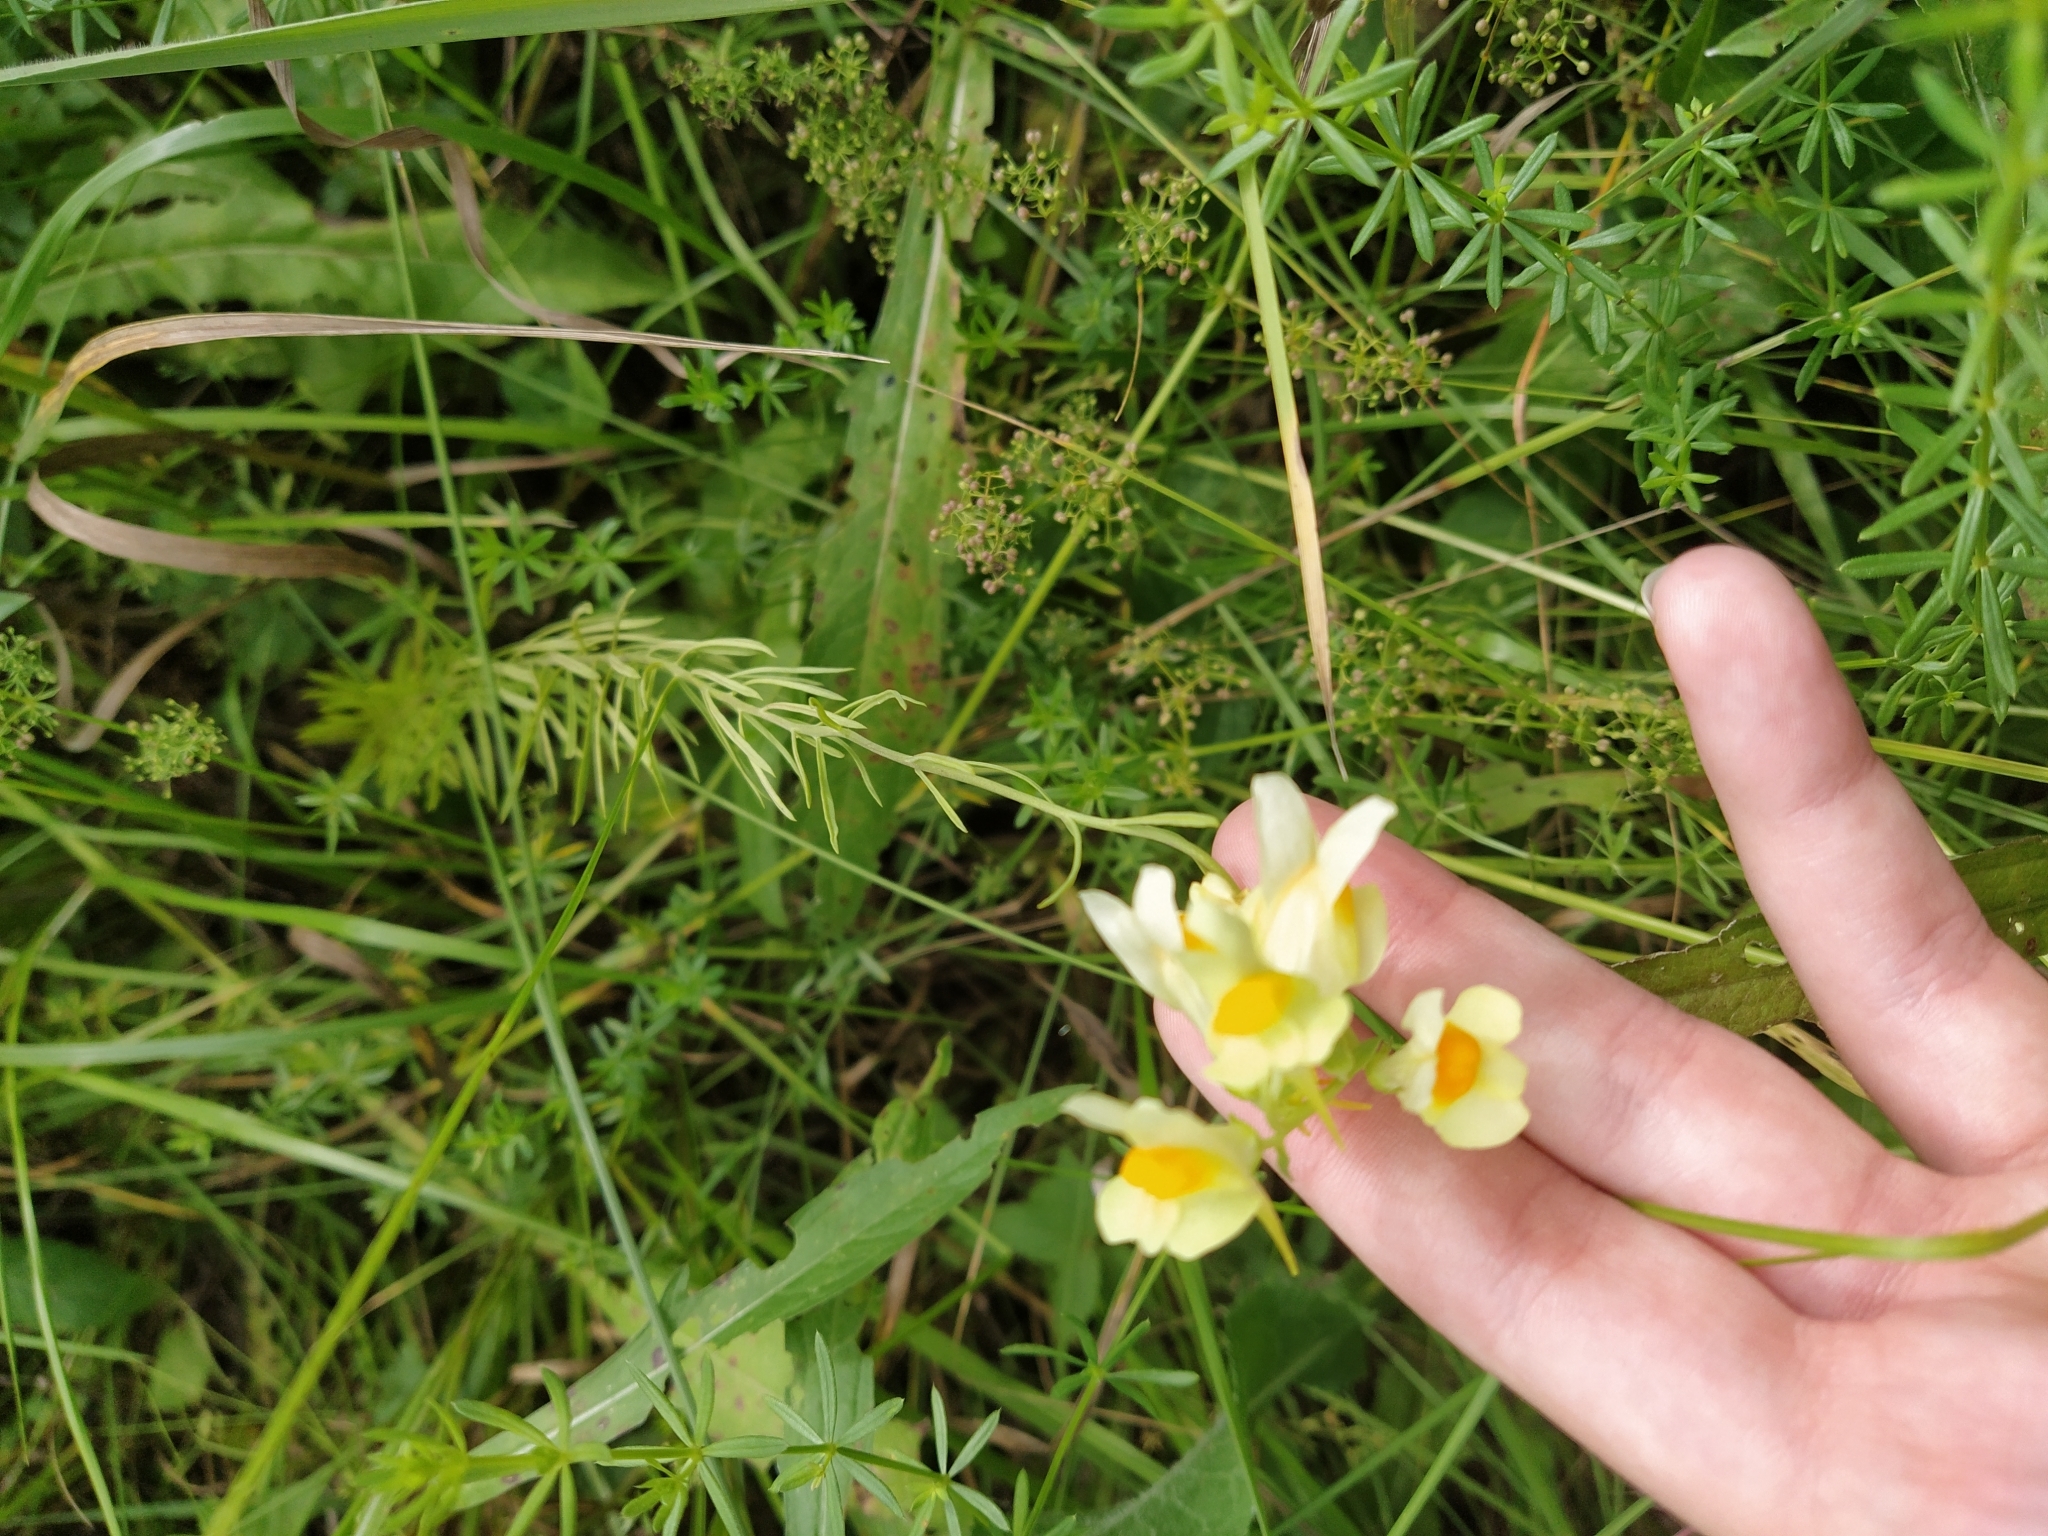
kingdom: Plantae
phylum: Tracheophyta
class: Magnoliopsida
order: Lamiales
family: Plantaginaceae
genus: Linaria
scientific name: Linaria vulgaris
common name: Butter and eggs
